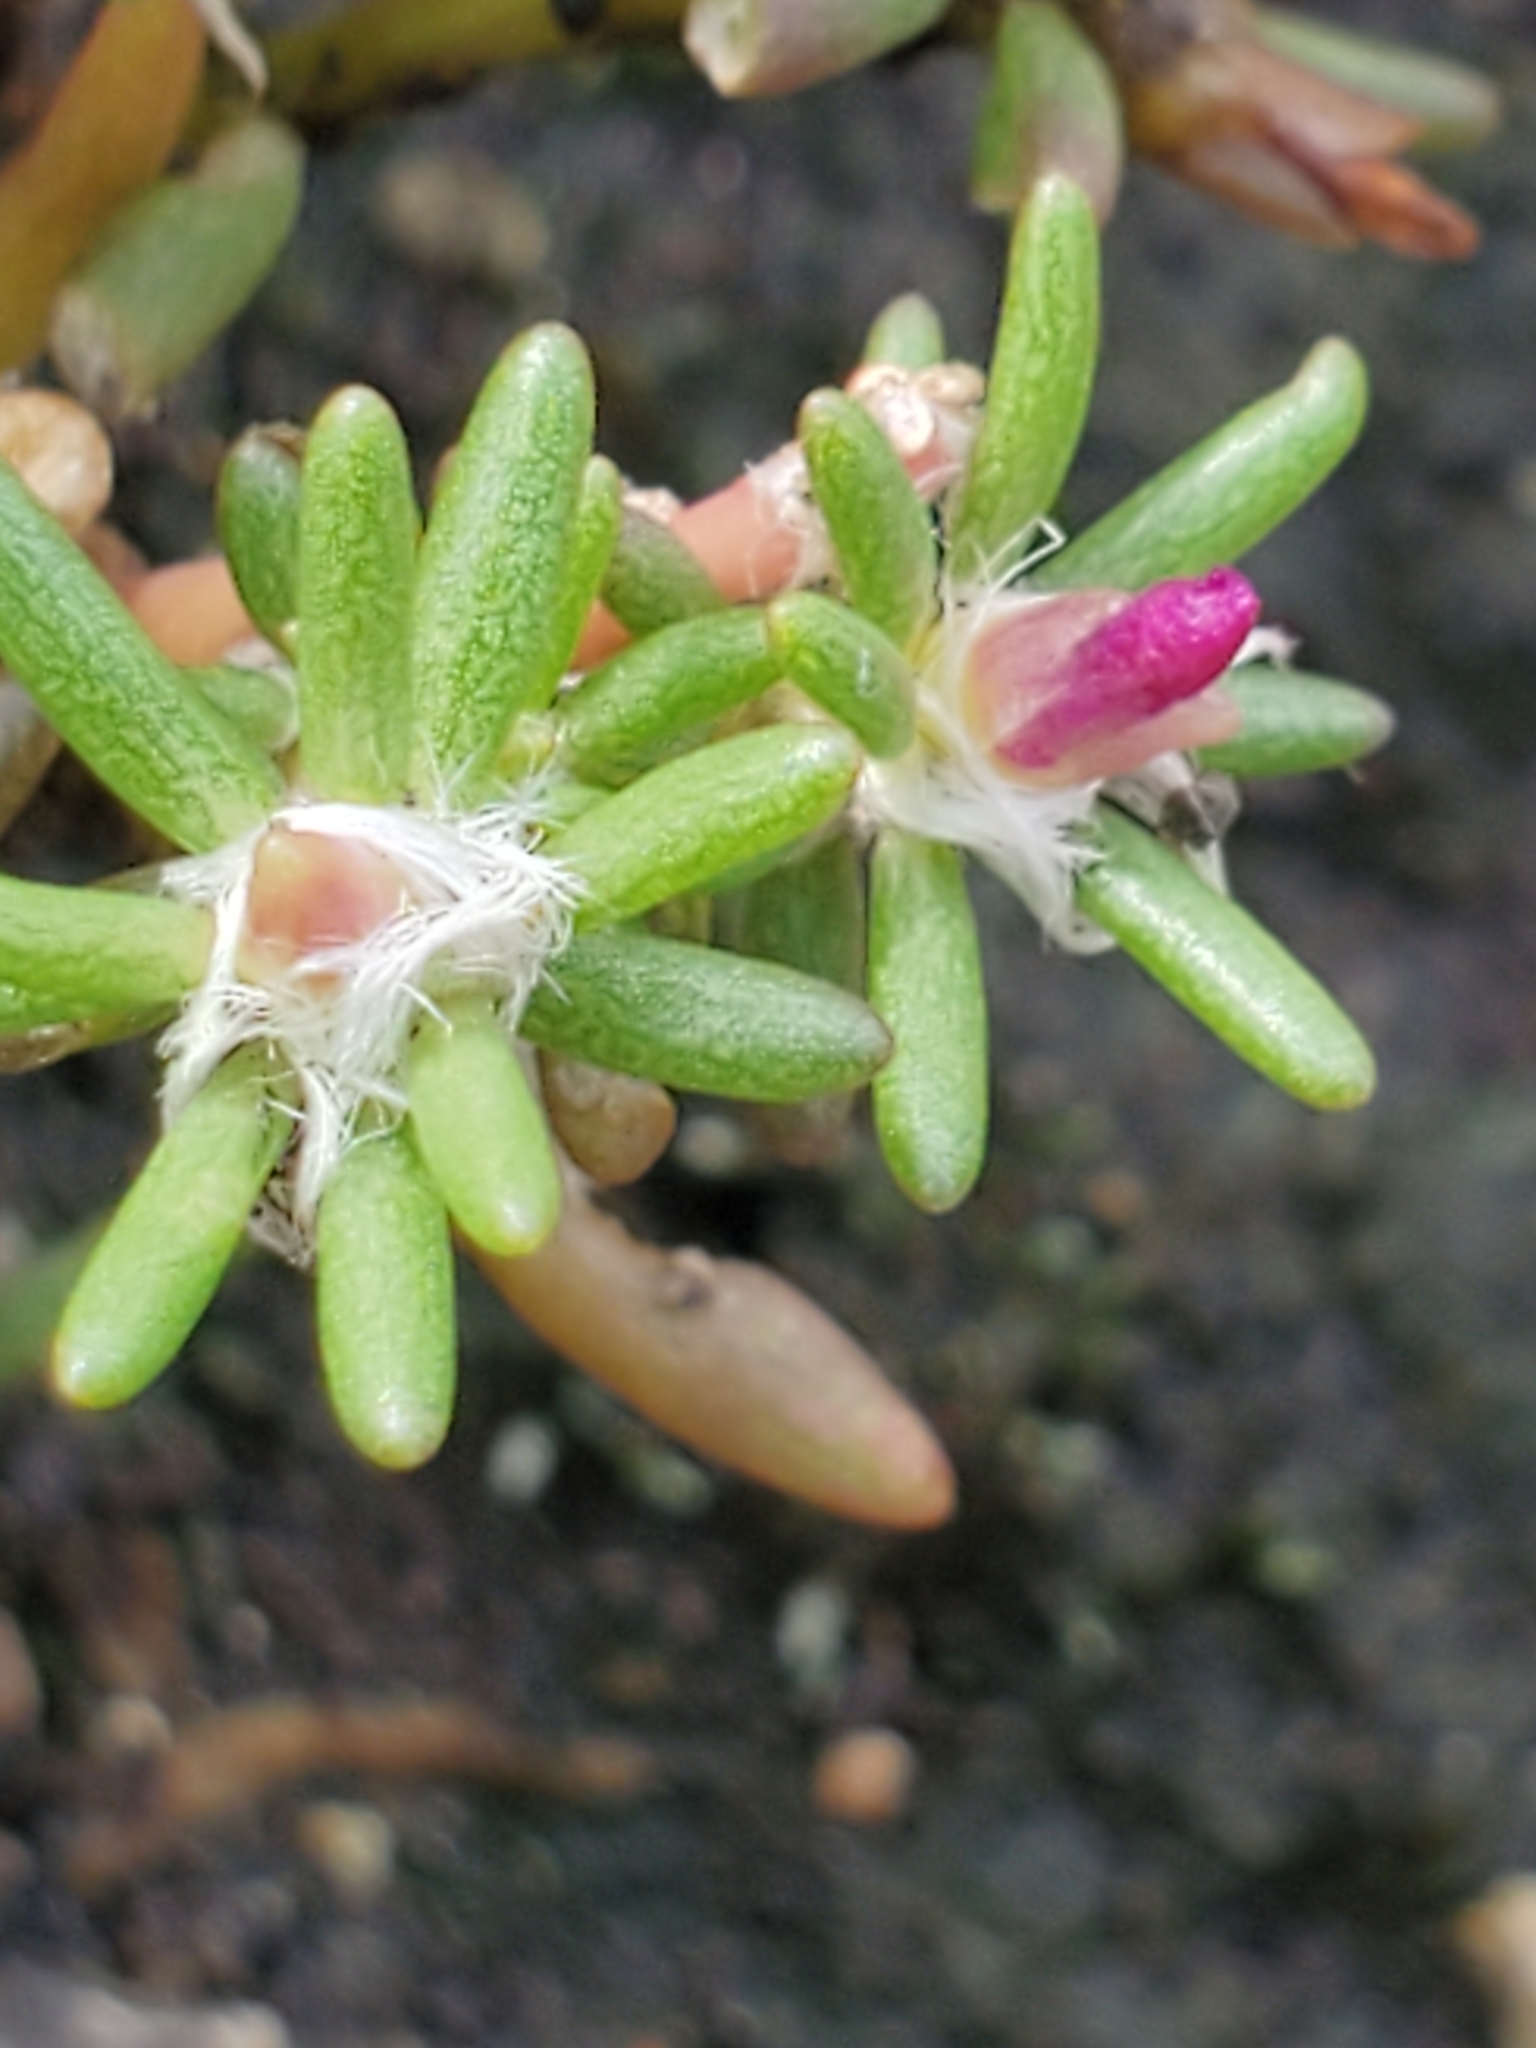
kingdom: Plantae
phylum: Tracheophyta
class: Magnoliopsida
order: Caryophyllales
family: Portulacaceae
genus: Portulaca
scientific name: Portulaca pilosa
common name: Kiss me quick
